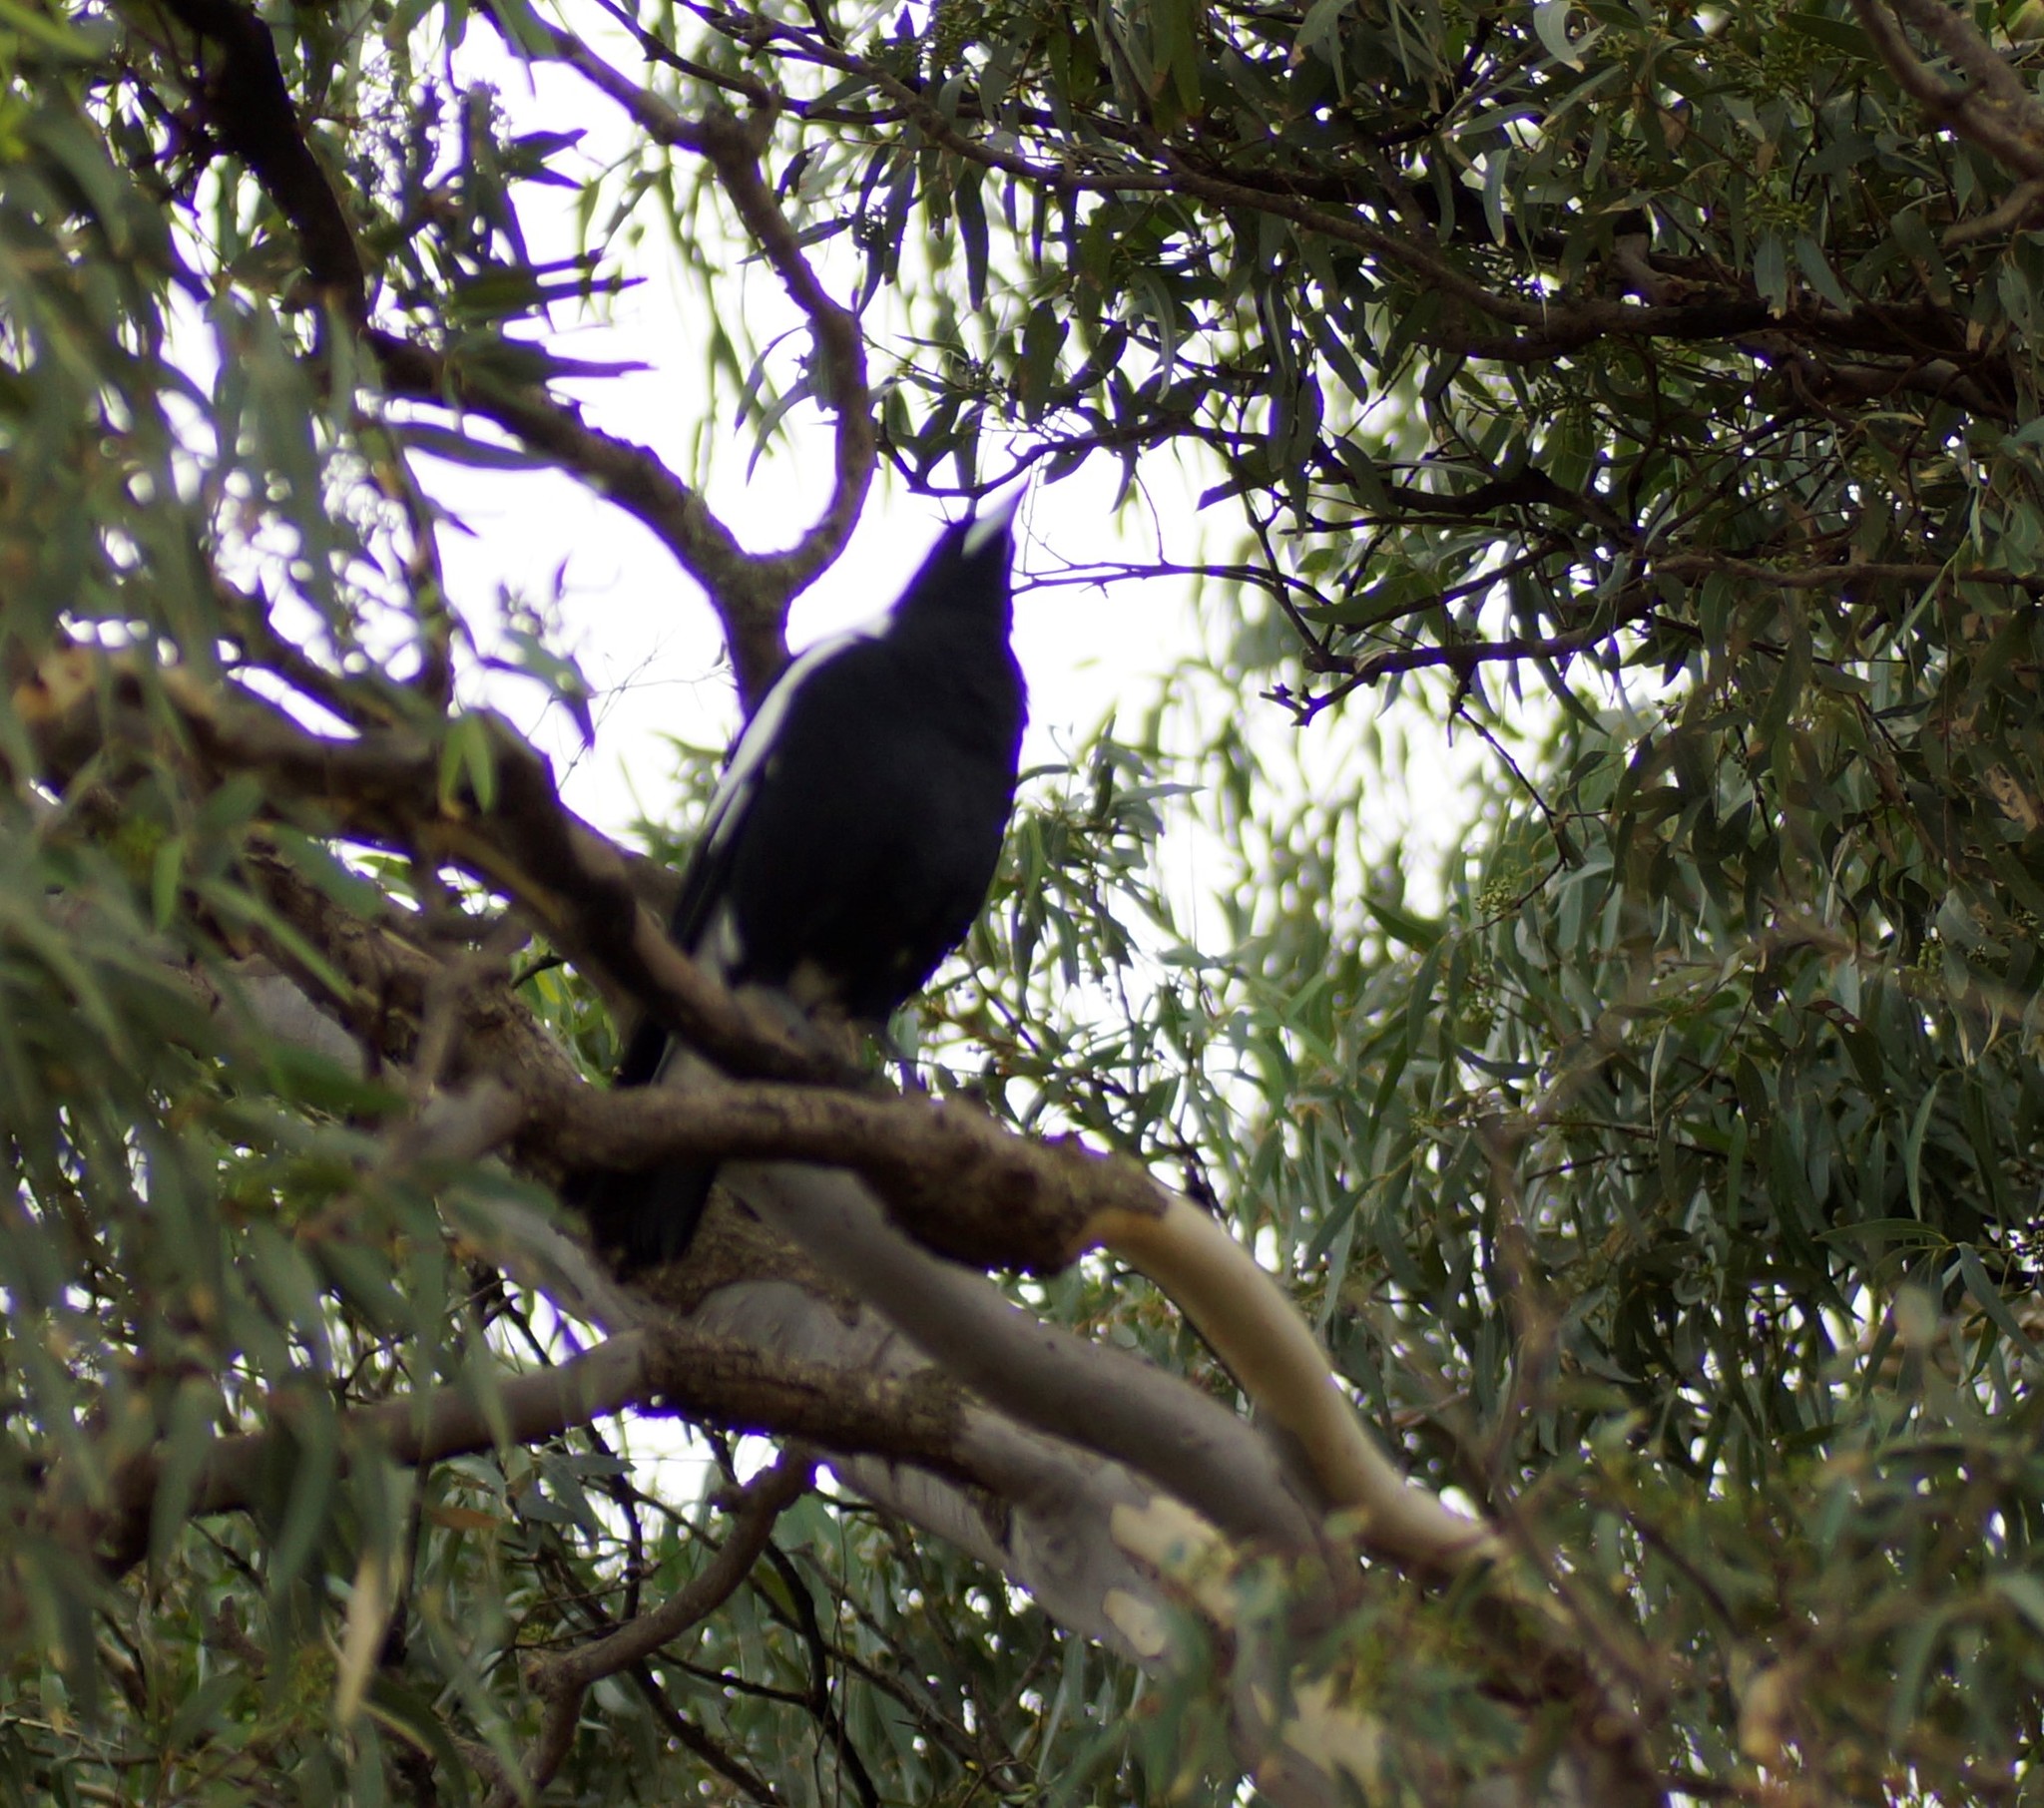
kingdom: Animalia
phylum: Chordata
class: Aves
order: Passeriformes
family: Cracticidae
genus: Gymnorhina
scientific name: Gymnorhina tibicen
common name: Australian magpie
